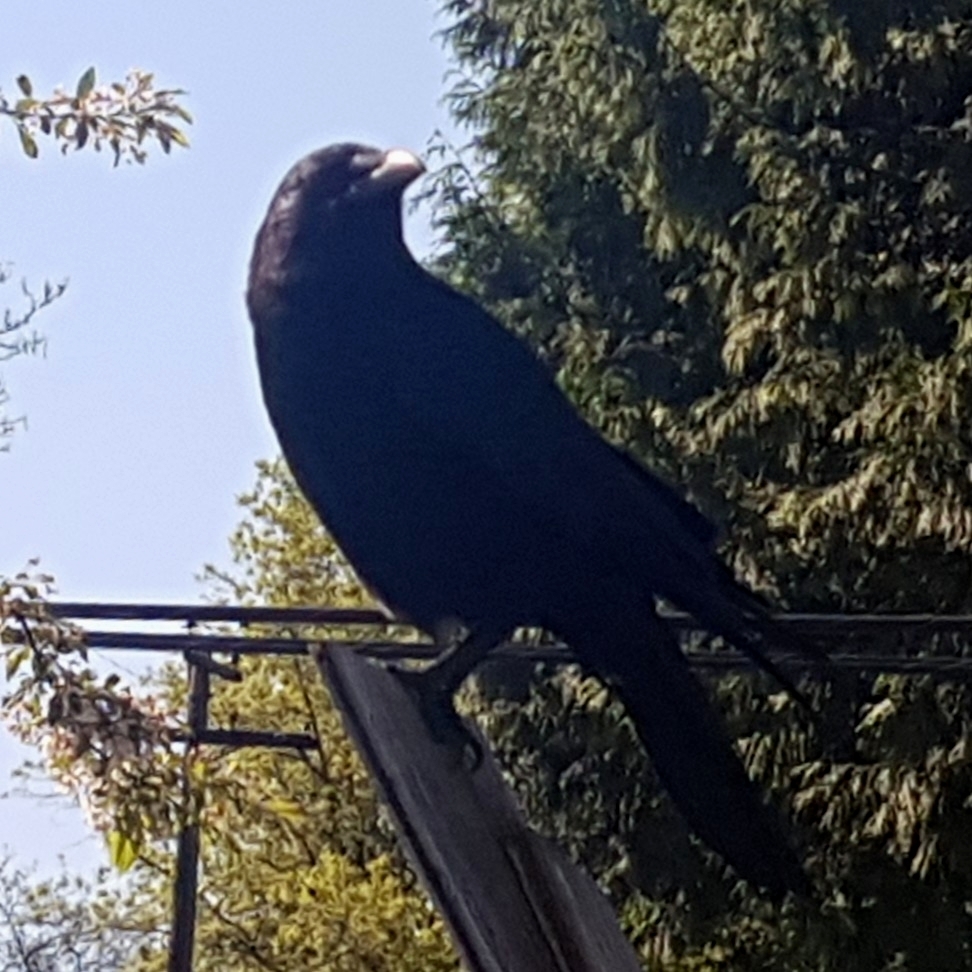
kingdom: Animalia
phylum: Chordata
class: Aves
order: Passeriformes
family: Corvidae
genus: Corvus
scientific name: Corvus brachyrhynchos
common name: American crow
